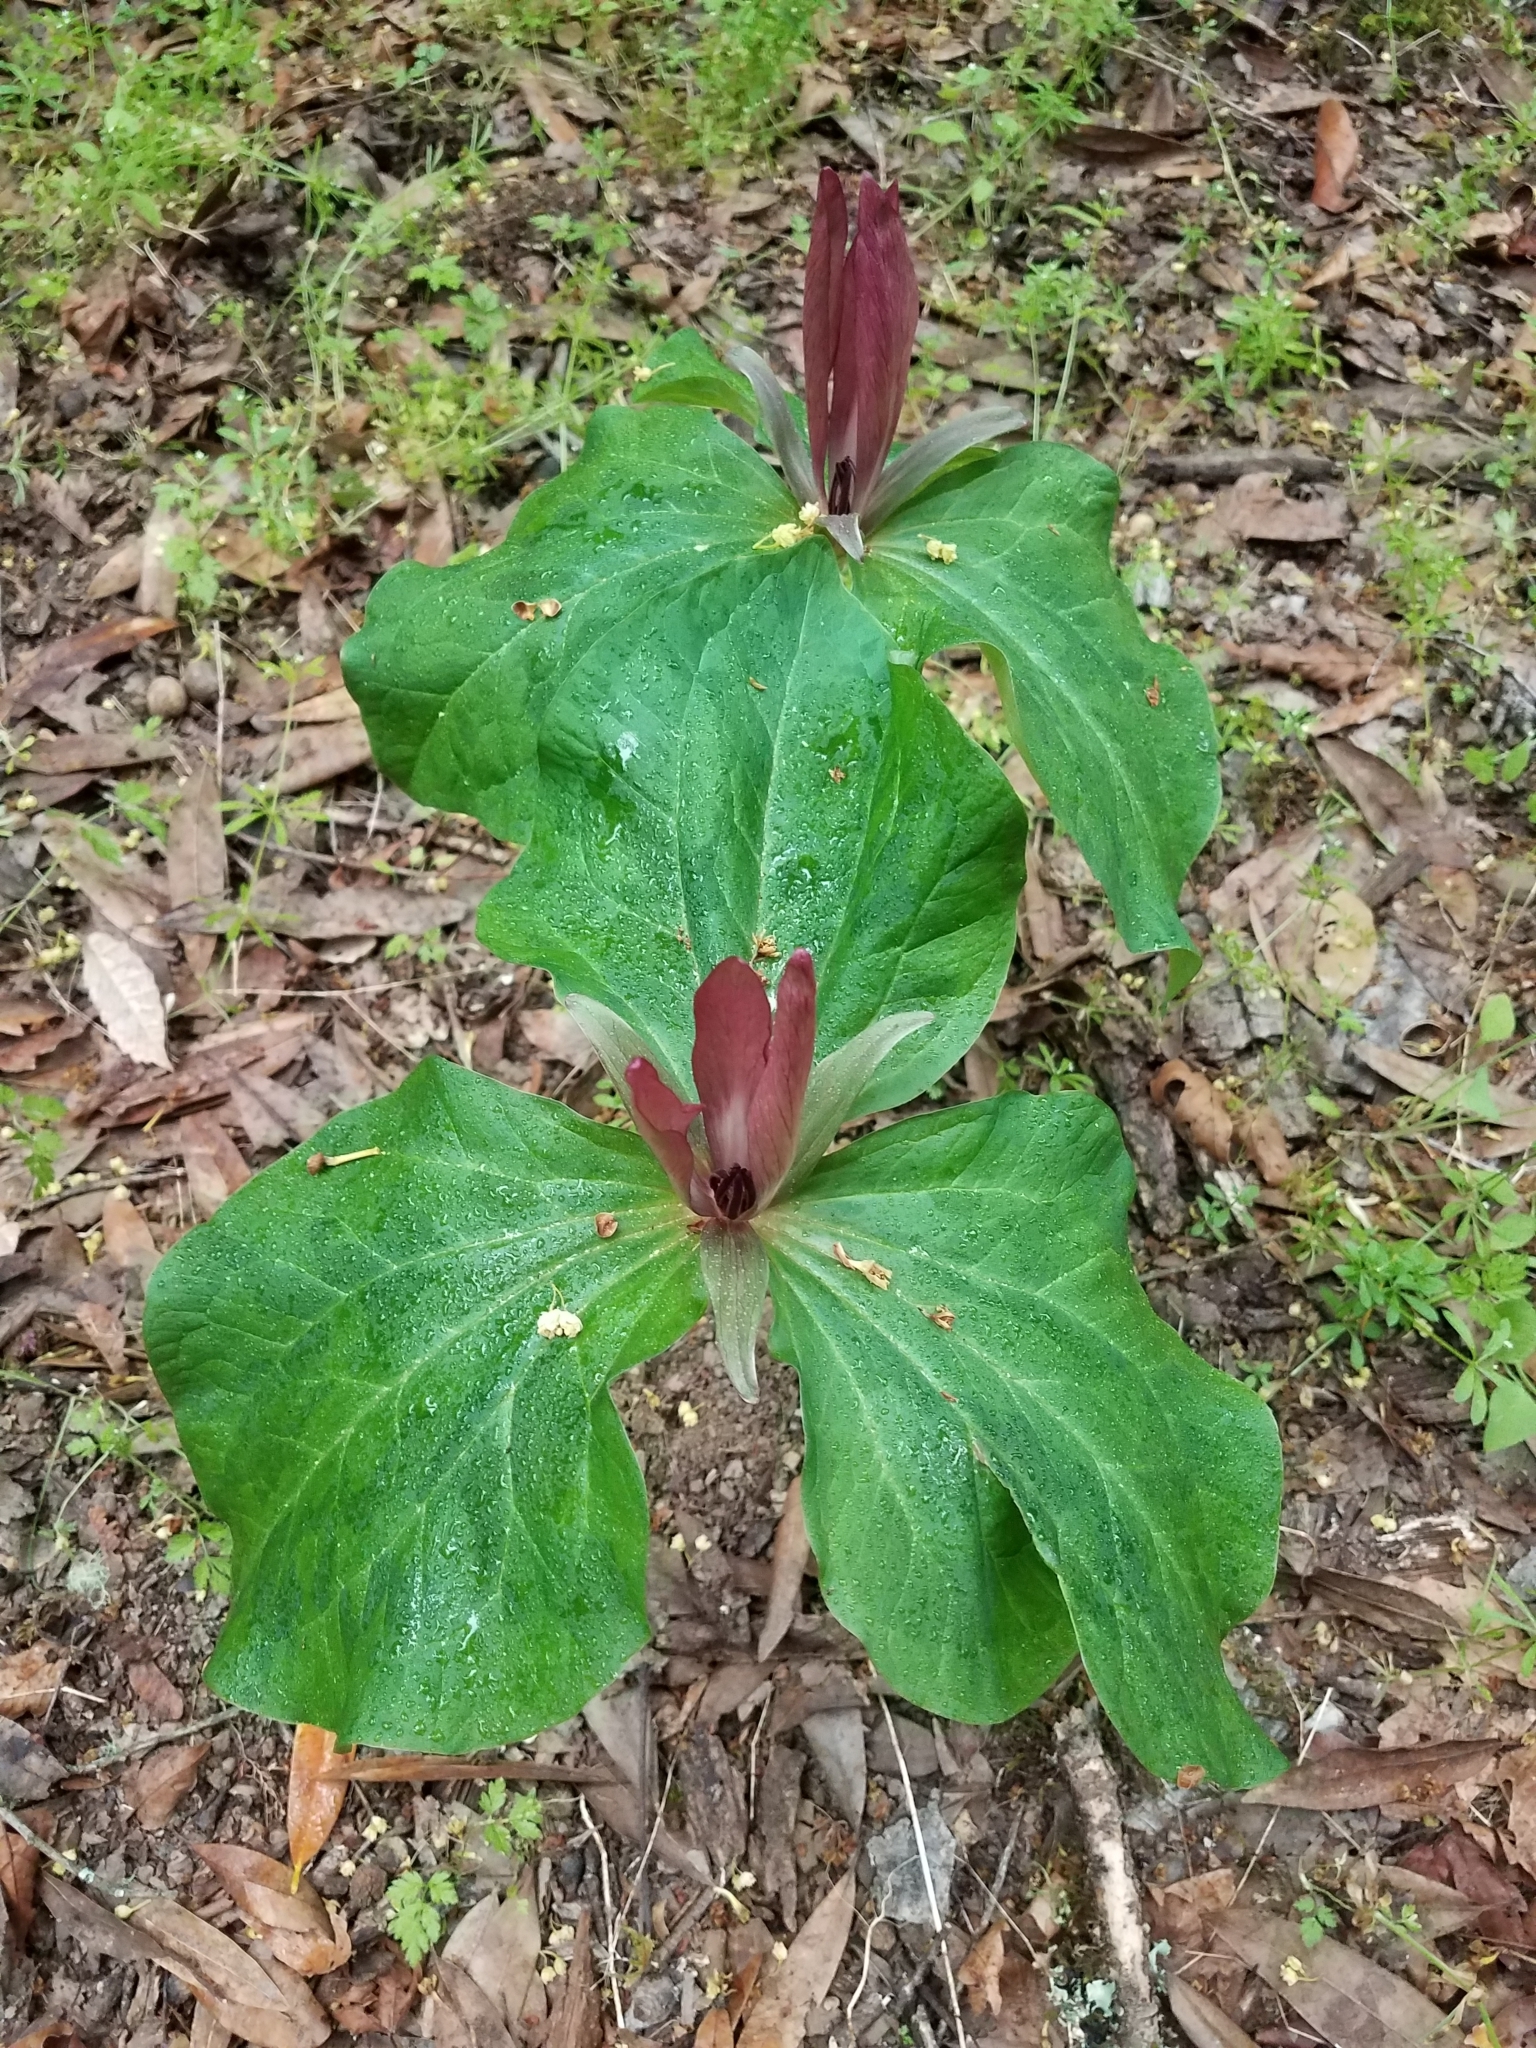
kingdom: Plantae
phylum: Tracheophyta
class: Liliopsida
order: Liliales
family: Melanthiaceae
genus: Trillium
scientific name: Trillium chloropetalum
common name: Giant trillium
